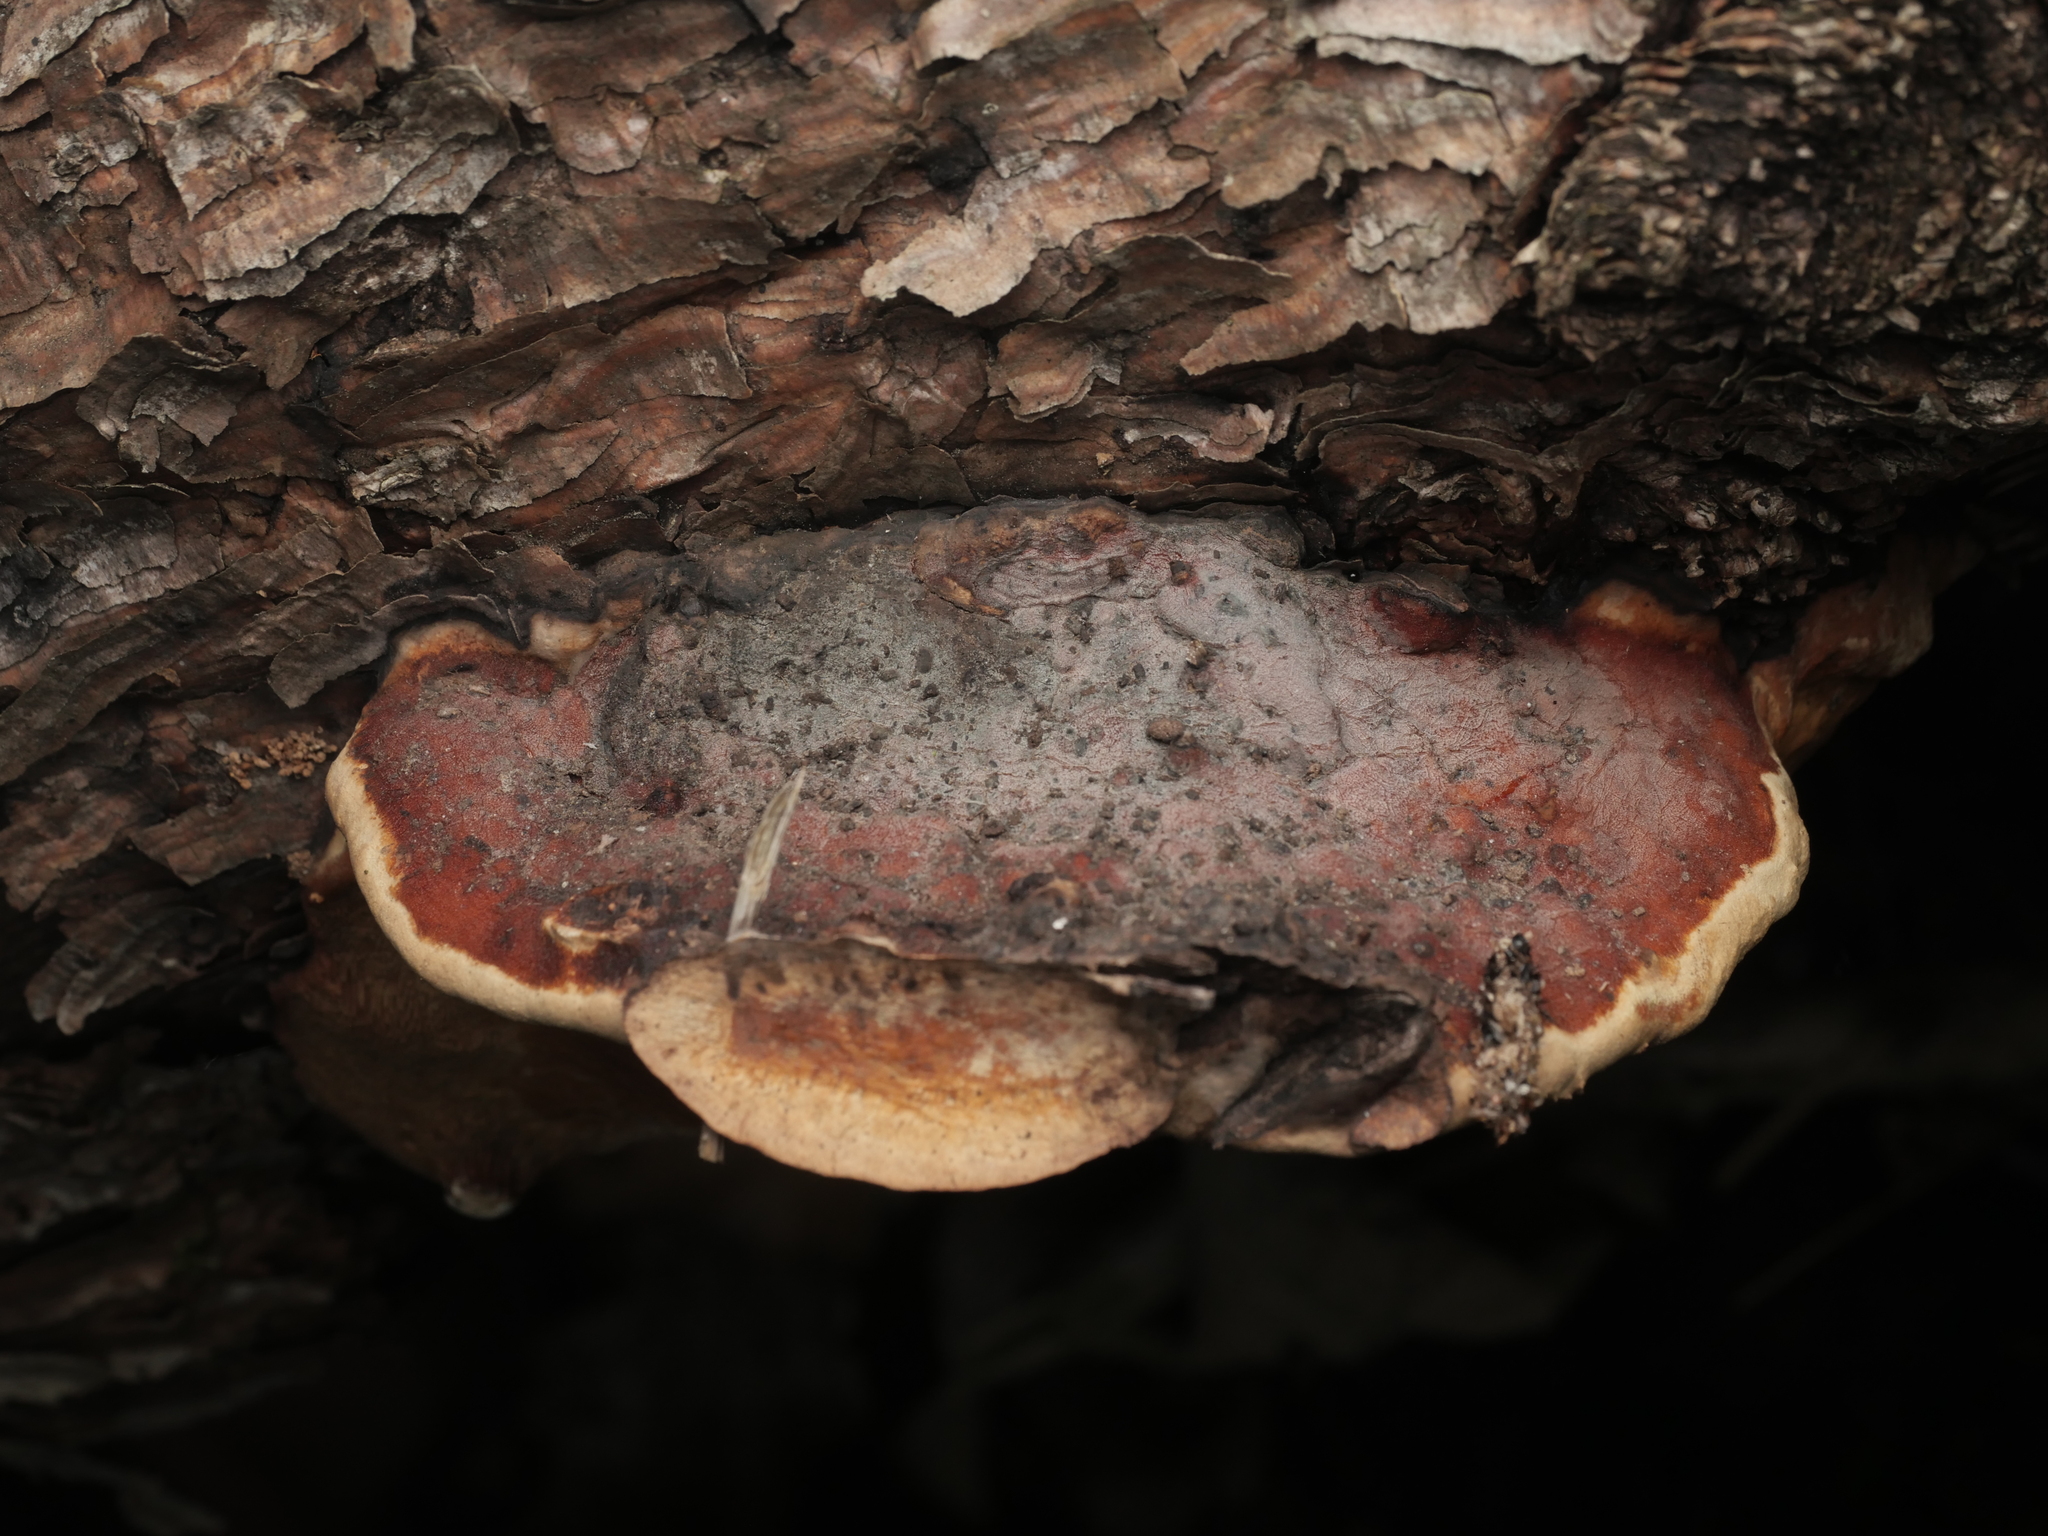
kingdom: Fungi
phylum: Basidiomycota
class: Agaricomycetes
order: Polyporales
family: Fomitopsidaceae
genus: Fomitopsis
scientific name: Fomitopsis pinicola
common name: Red-belted bracket
